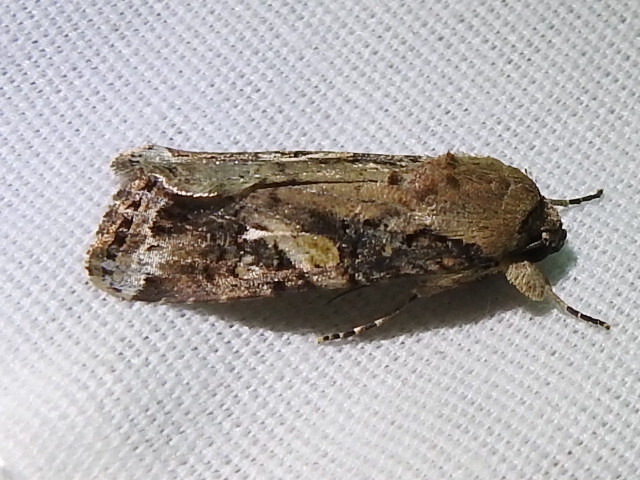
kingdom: Animalia
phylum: Arthropoda
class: Insecta
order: Lepidoptera
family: Noctuidae
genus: Spodoptera
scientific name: Spodoptera frugiperda
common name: Fall armyworm
